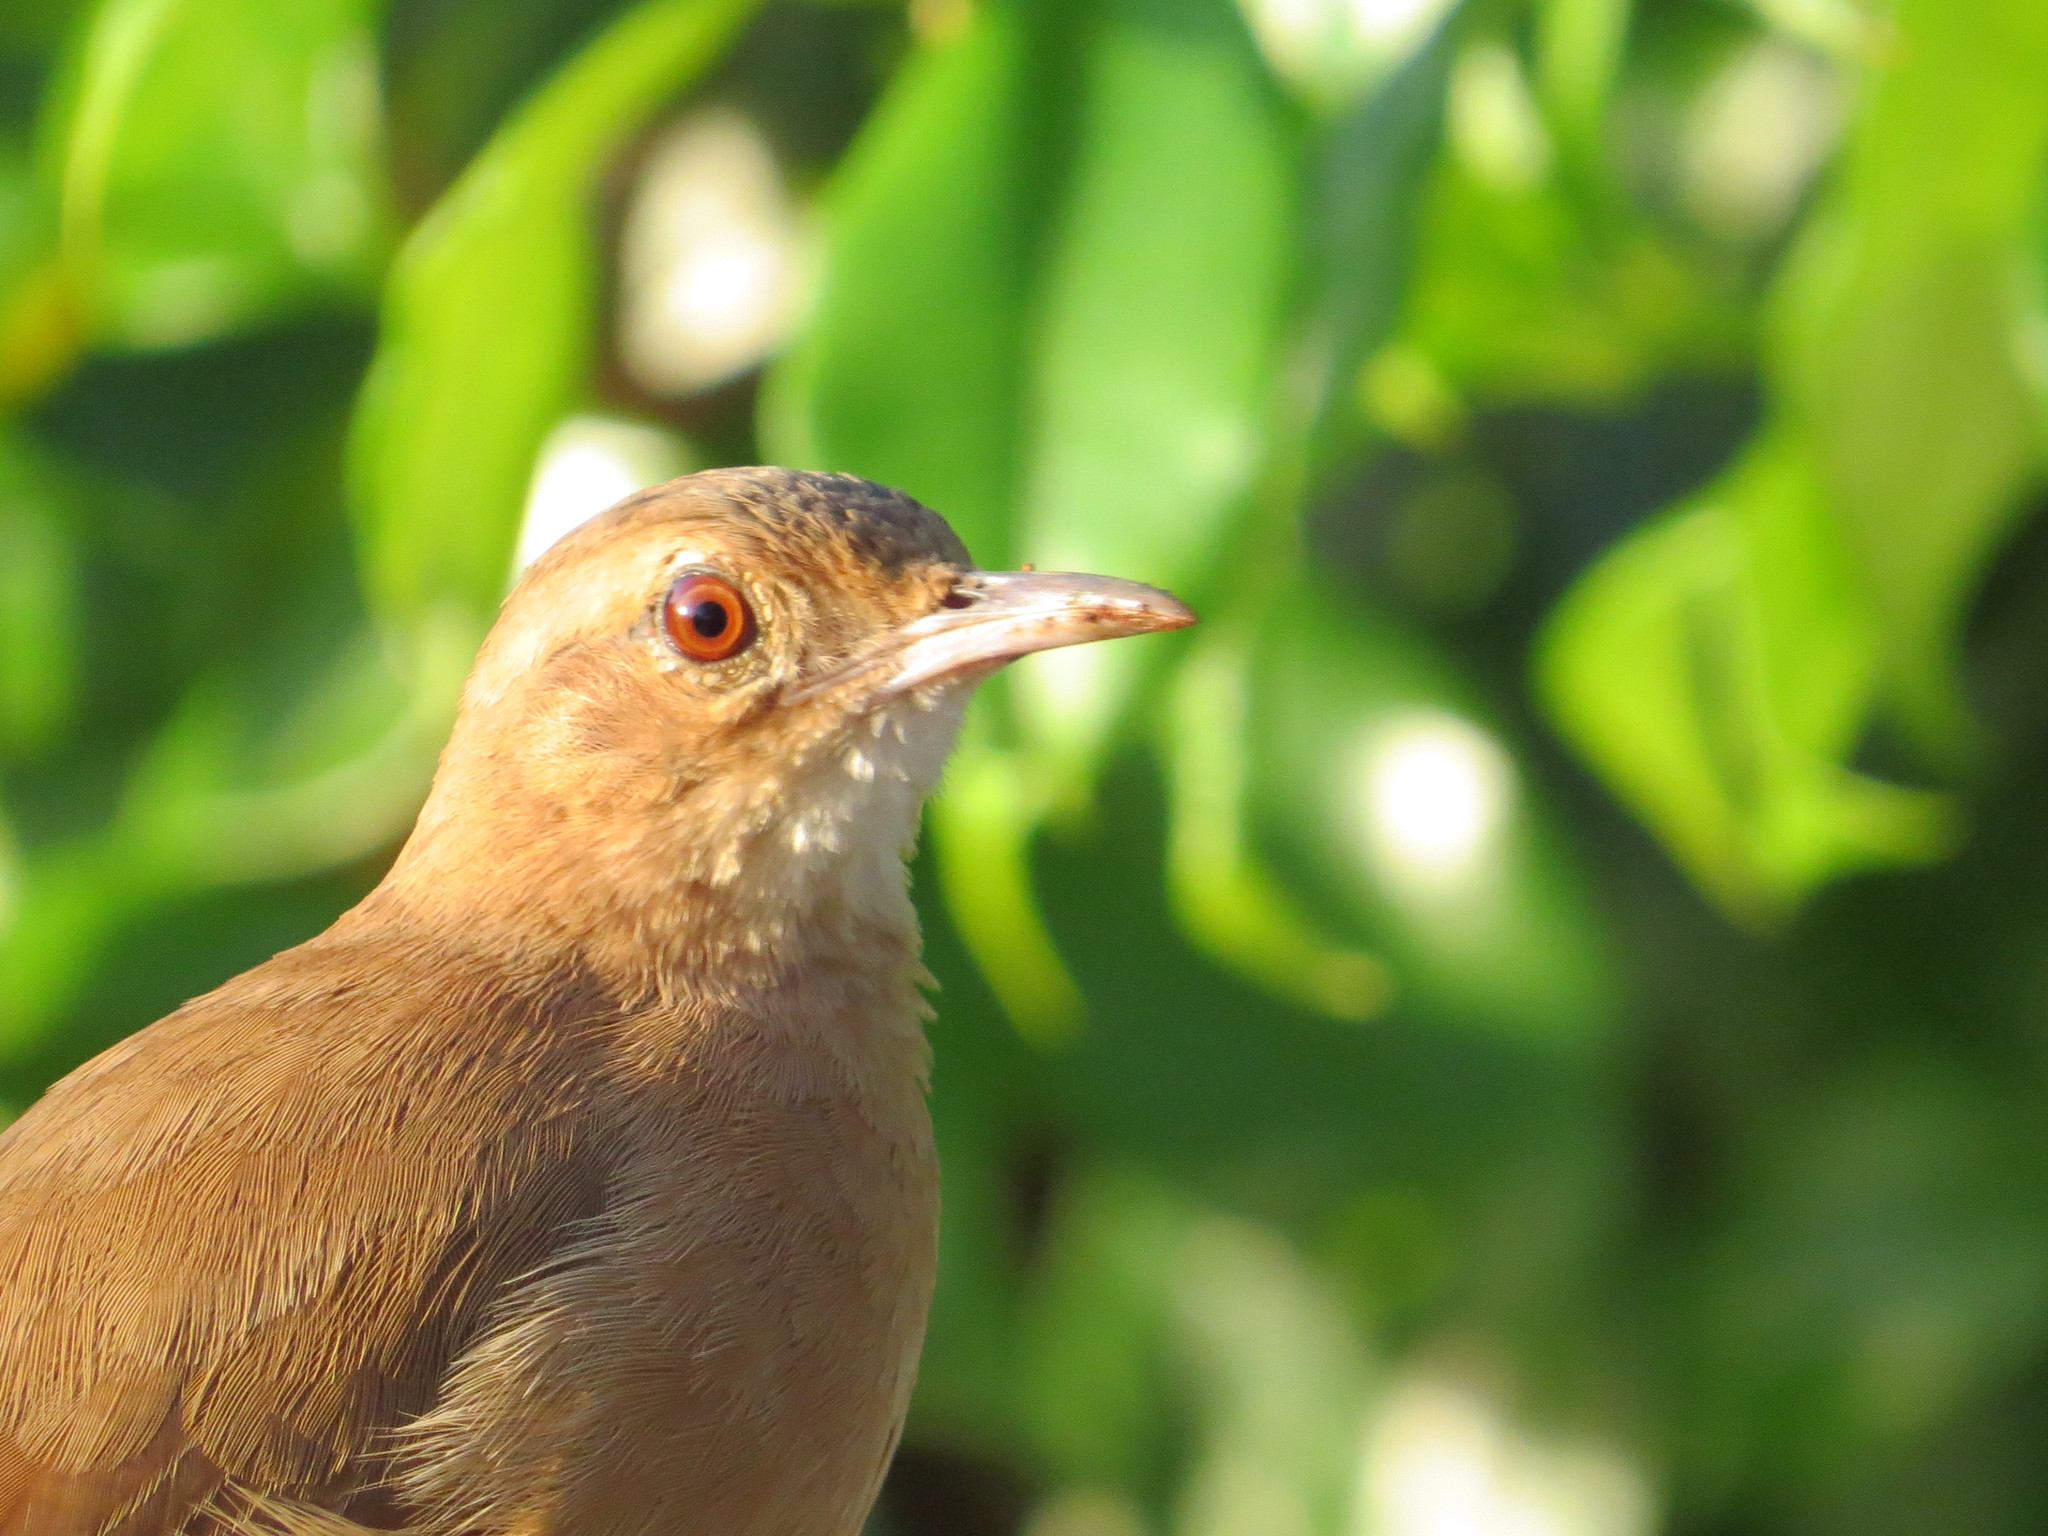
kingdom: Animalia
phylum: Chordata
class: Aves
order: Passeriformes
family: Furnariidae
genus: Furnarius
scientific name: Furnarius rufus
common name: Rufous hornero
